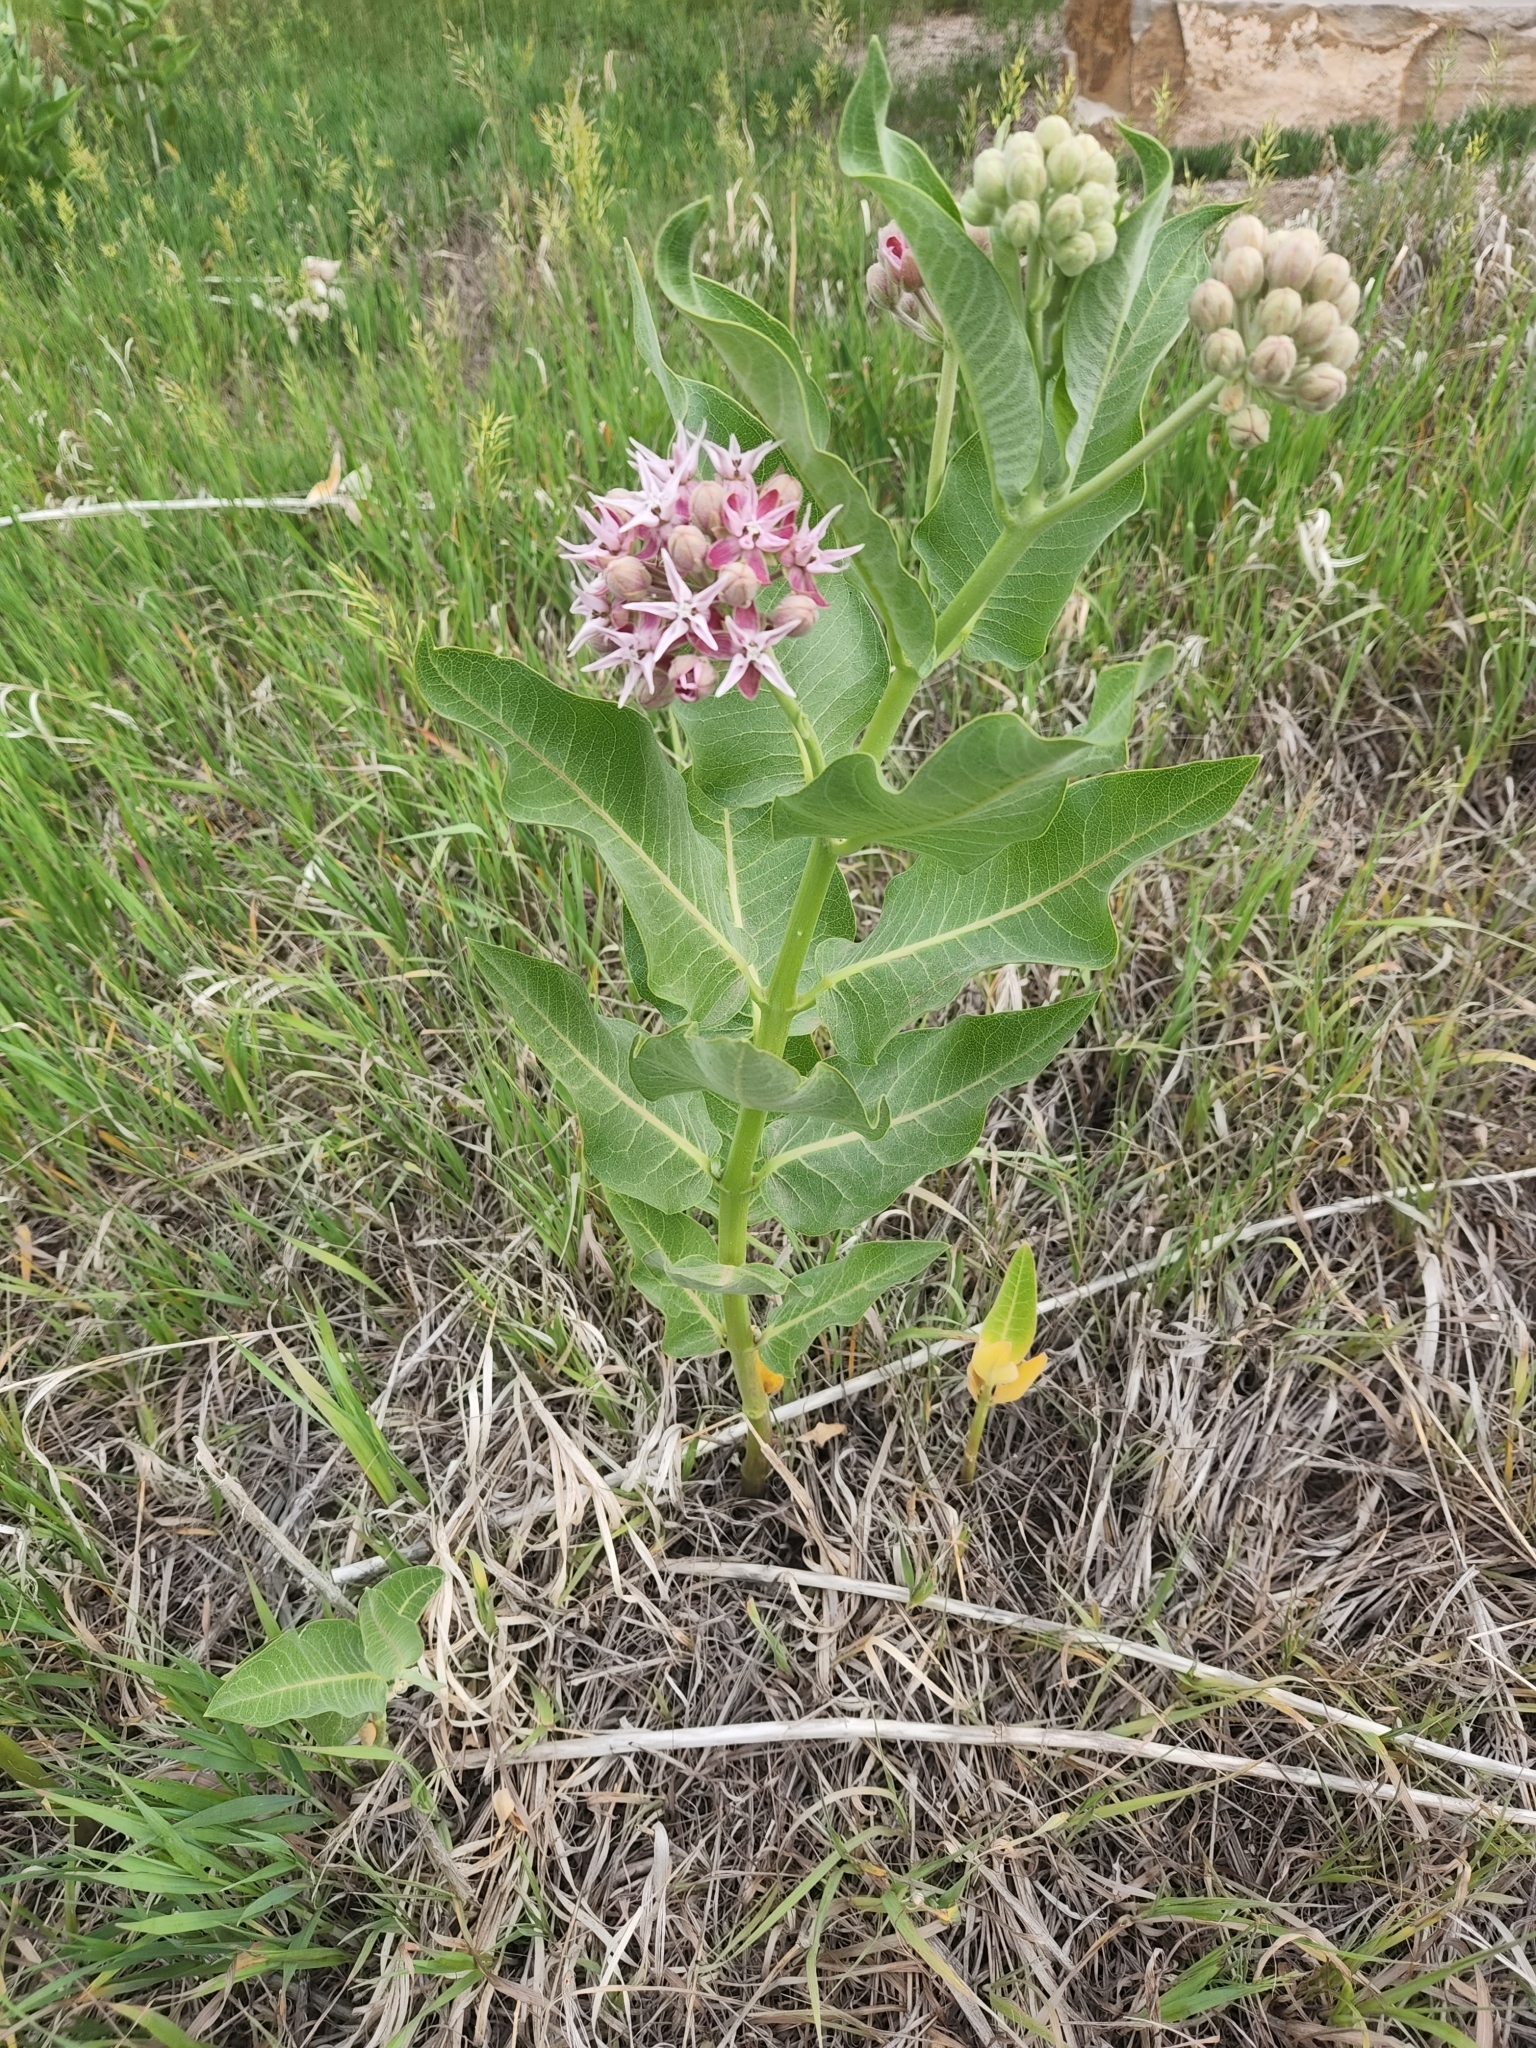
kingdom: Plantae
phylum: Tracheophyta
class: Magnoliopsida
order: Gentianales
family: Apocynaceae
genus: Asclepias
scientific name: Asclepias speciosa
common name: Showy milkweed
